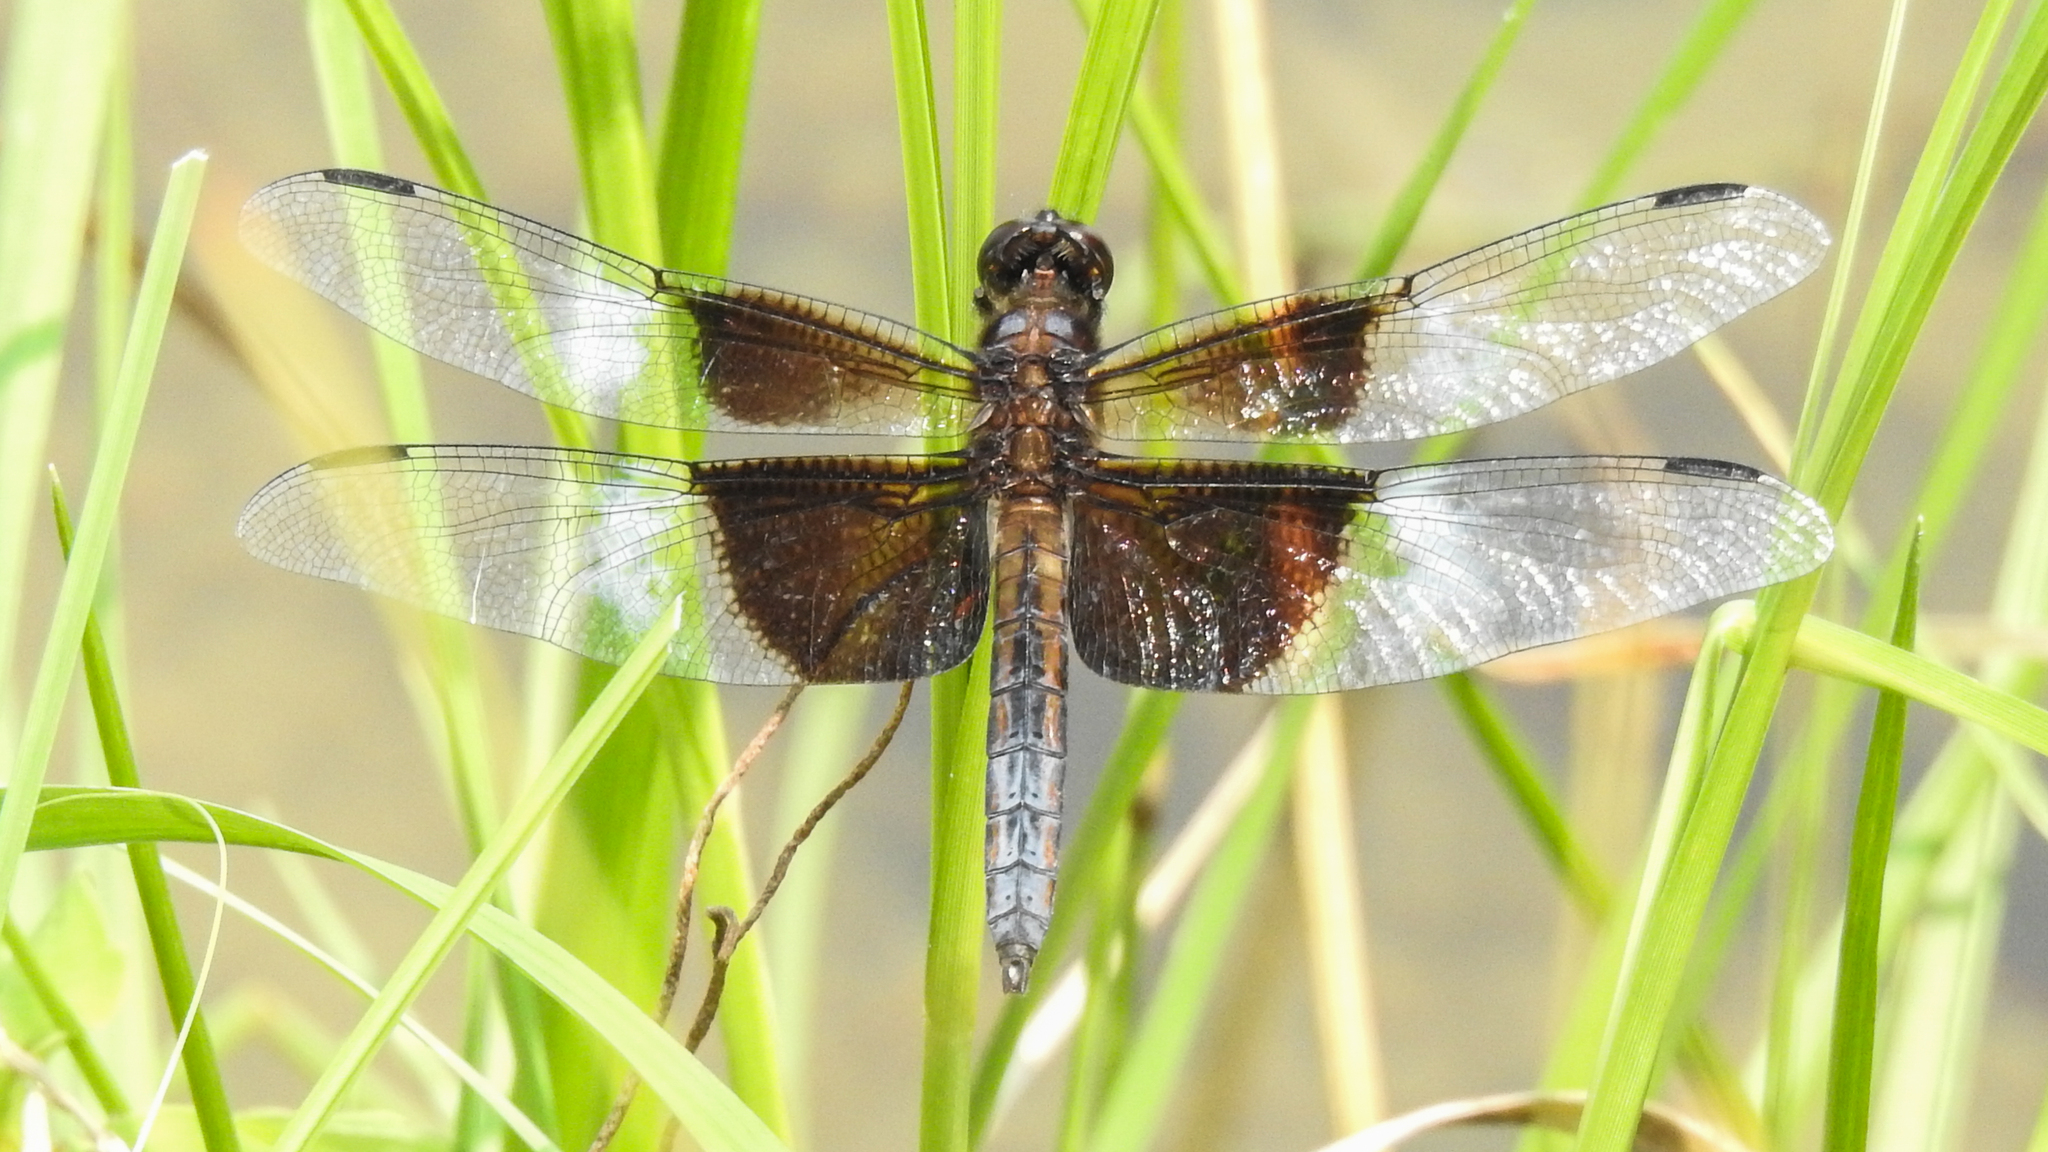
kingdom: Animalia
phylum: Arthropoda
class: Insecta
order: Odonata
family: Libellulidae
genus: Libellula
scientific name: Libellula luctuosa
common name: Widow skimmer
